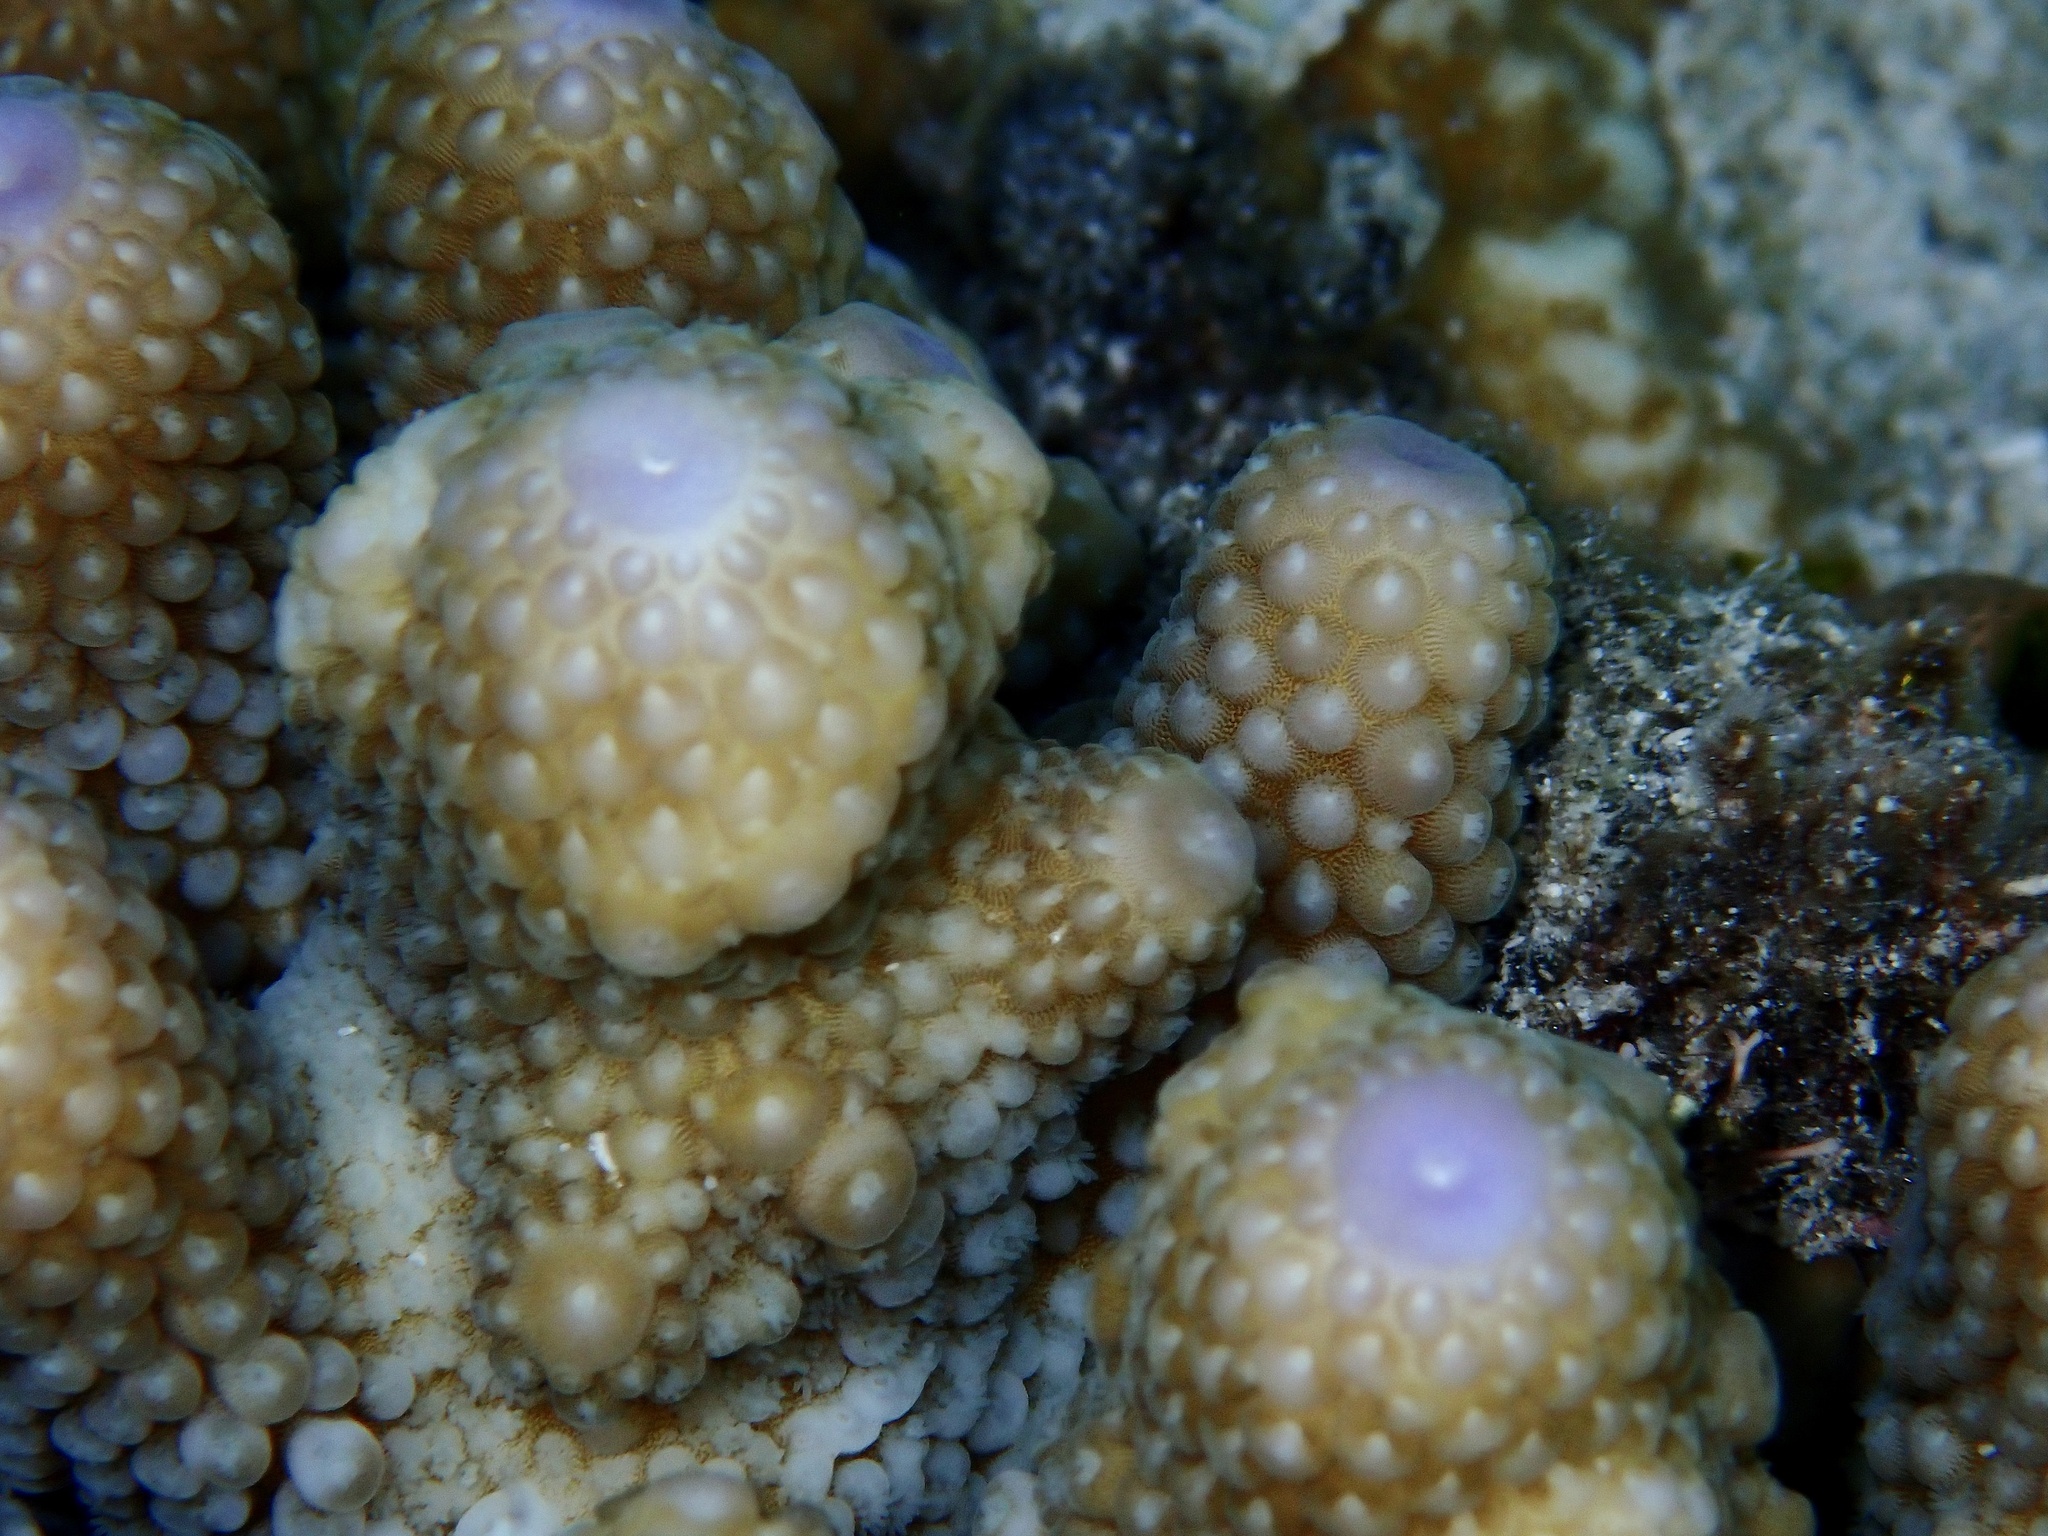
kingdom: Animalia
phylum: Cnidaria
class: Anthozoa
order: Scleractinia
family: Acroporidae
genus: Acropora
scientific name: Acropora humilis
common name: Finger coral
